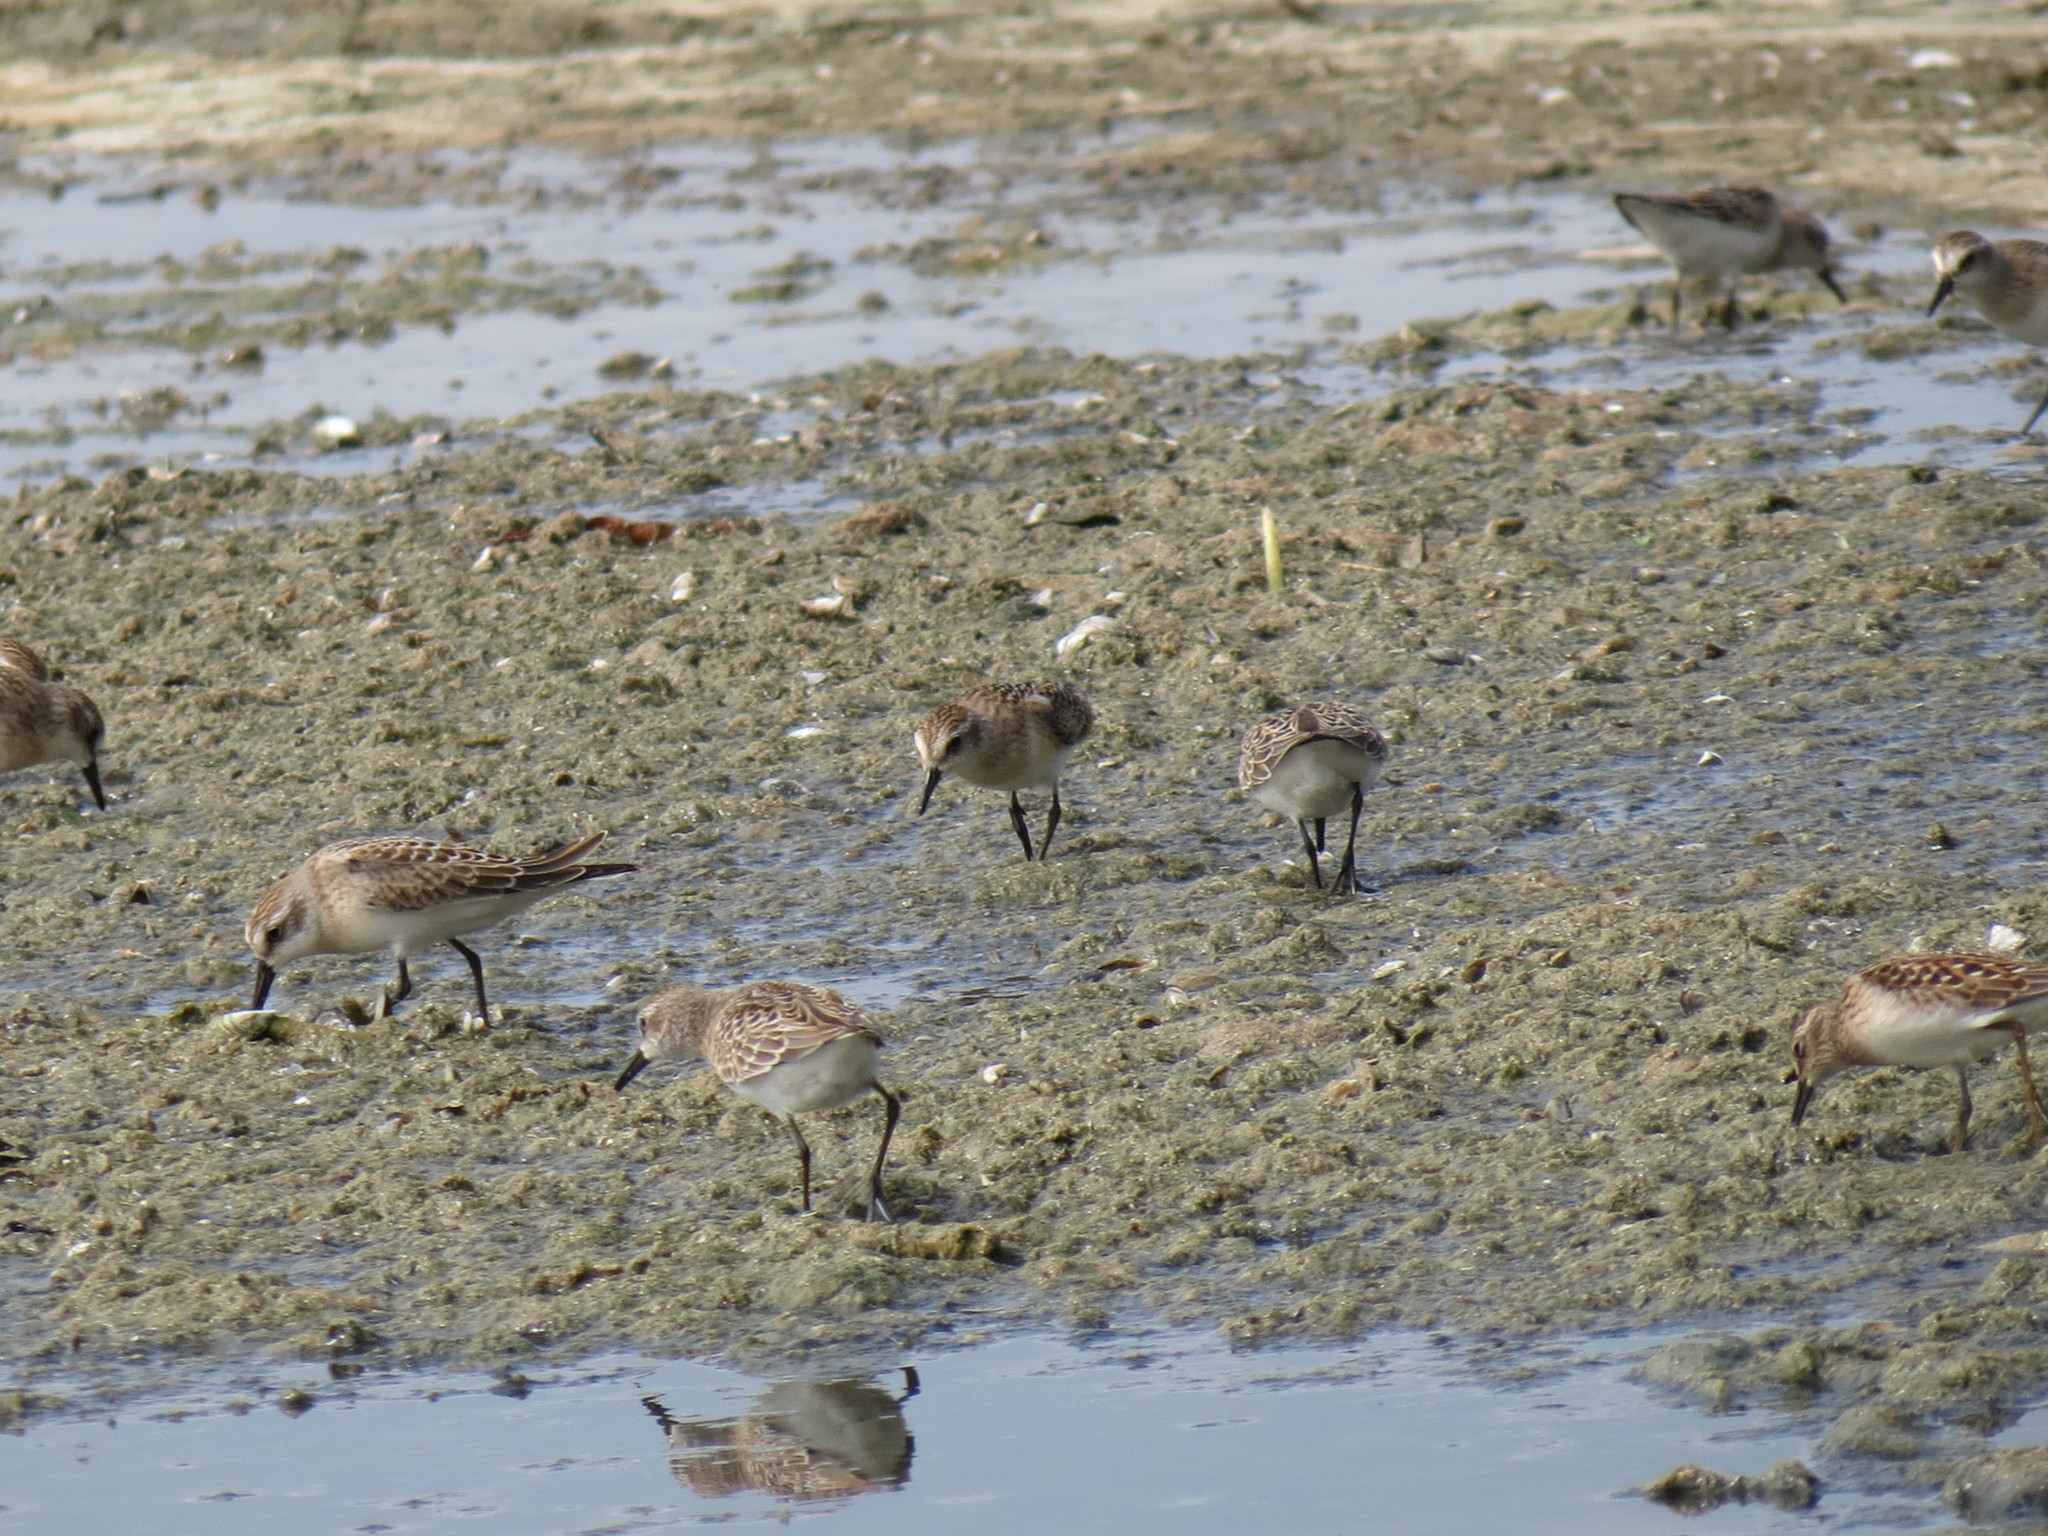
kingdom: Animalia
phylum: Chordata
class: Aves
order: Charadriiformes
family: Scolopacidae
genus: Calidris
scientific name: Calidris pusilla
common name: Semipalmated sandpiper
